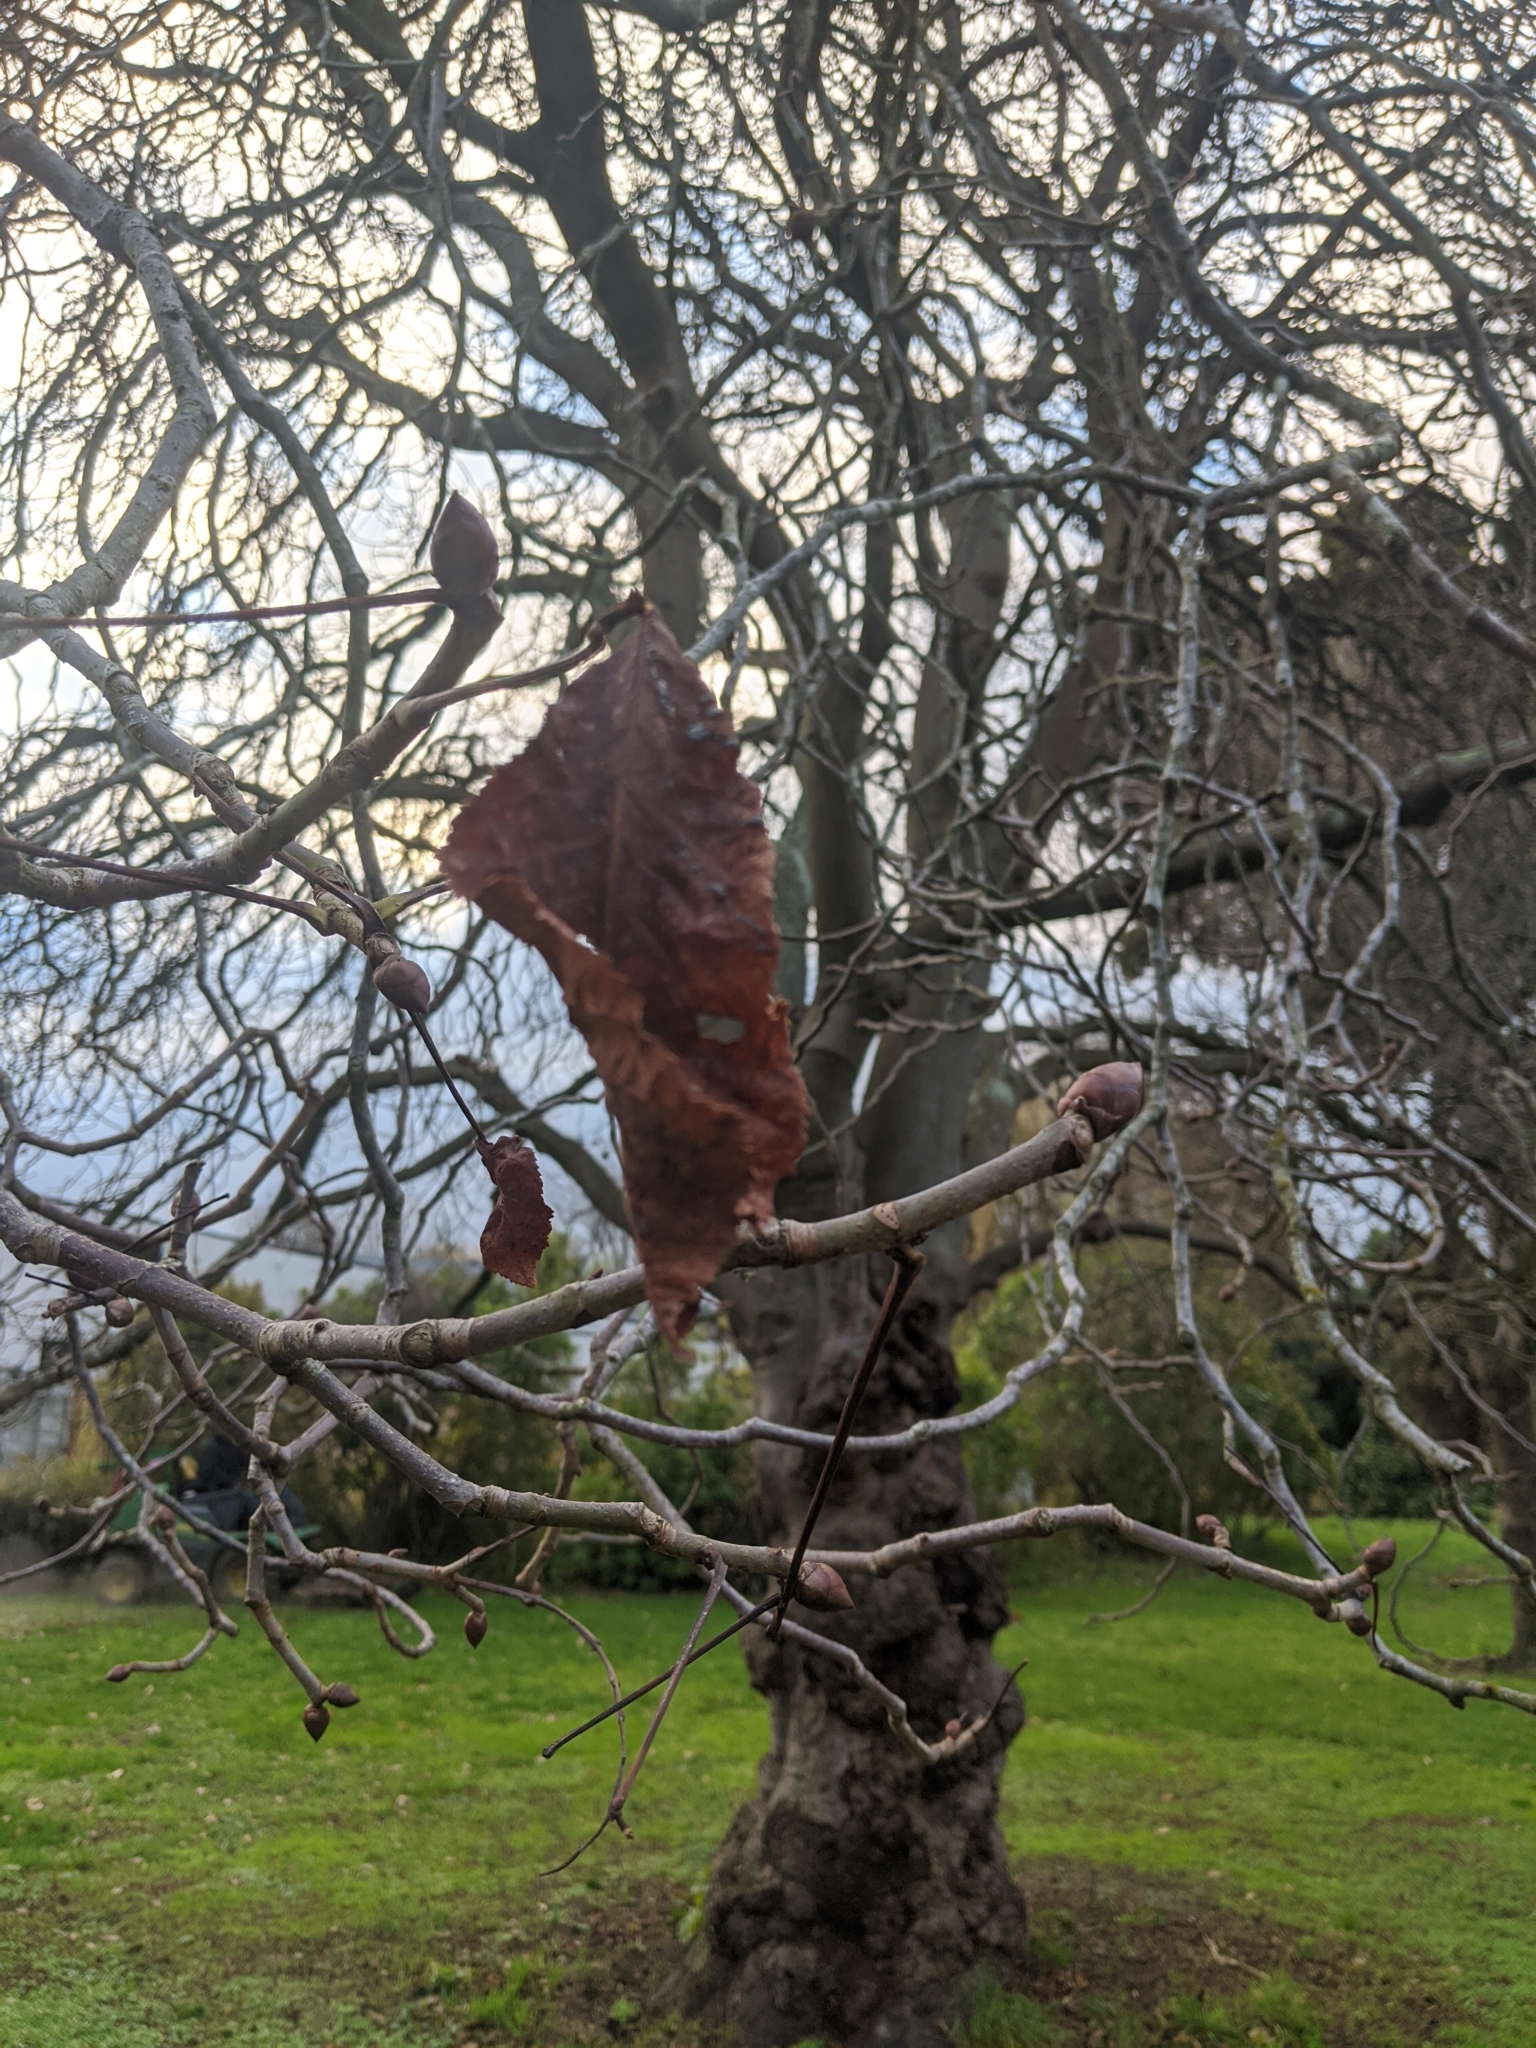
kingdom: Fungi
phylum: Basidiomycota
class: Agaricomycetes
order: Agaricales
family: Tubariaceae
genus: Cyclocybe
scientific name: Cyclocybe parasitica
